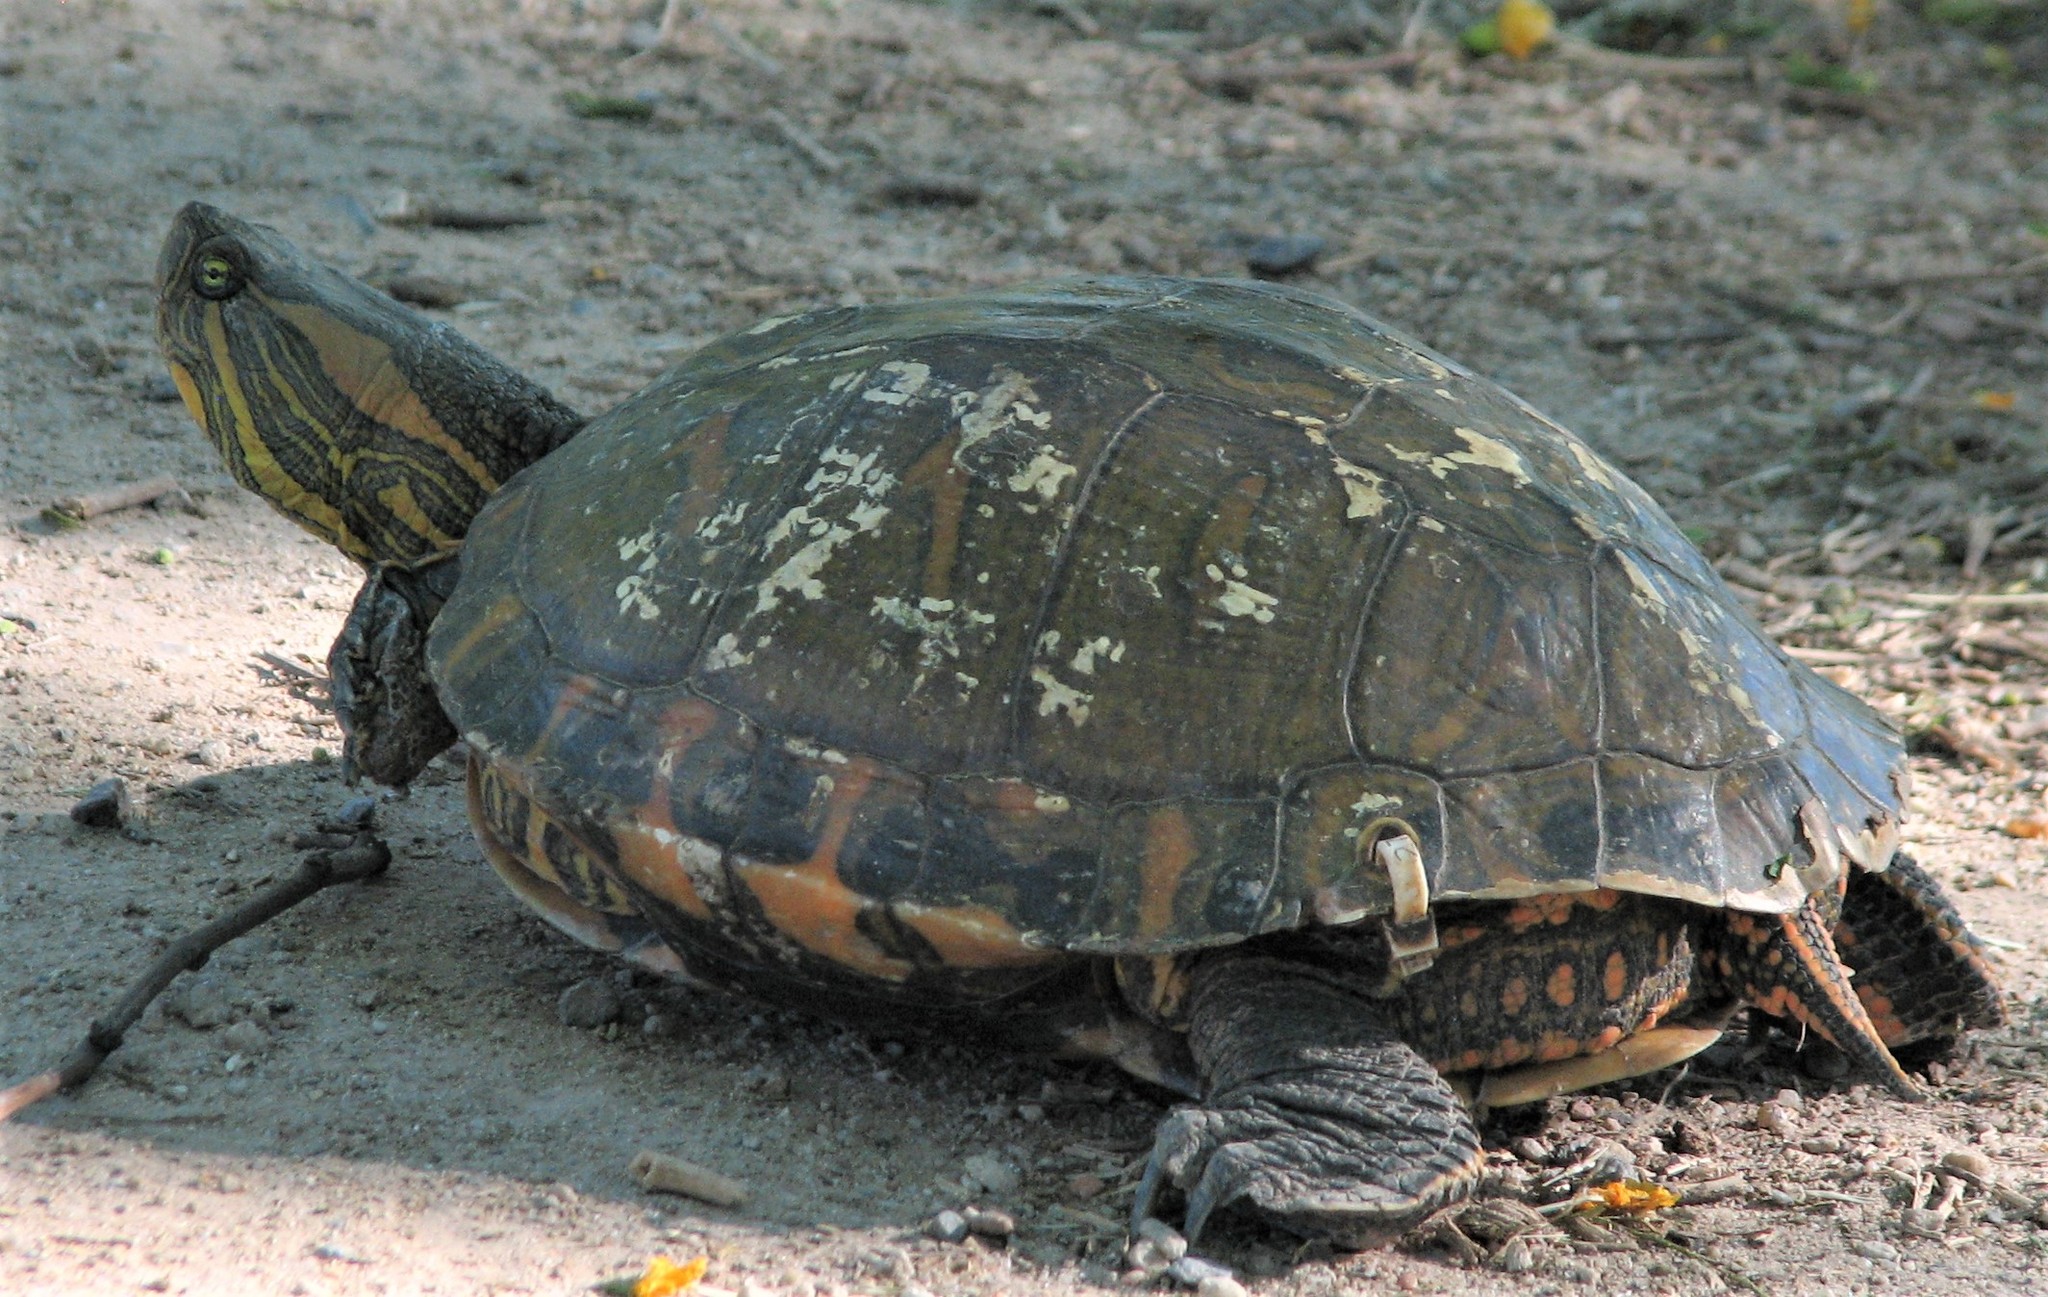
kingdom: Animalia
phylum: Chordata
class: Testudines
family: Emydidae
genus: Trachemys
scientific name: Trachemys dorbigni
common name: Black-bellied slider
